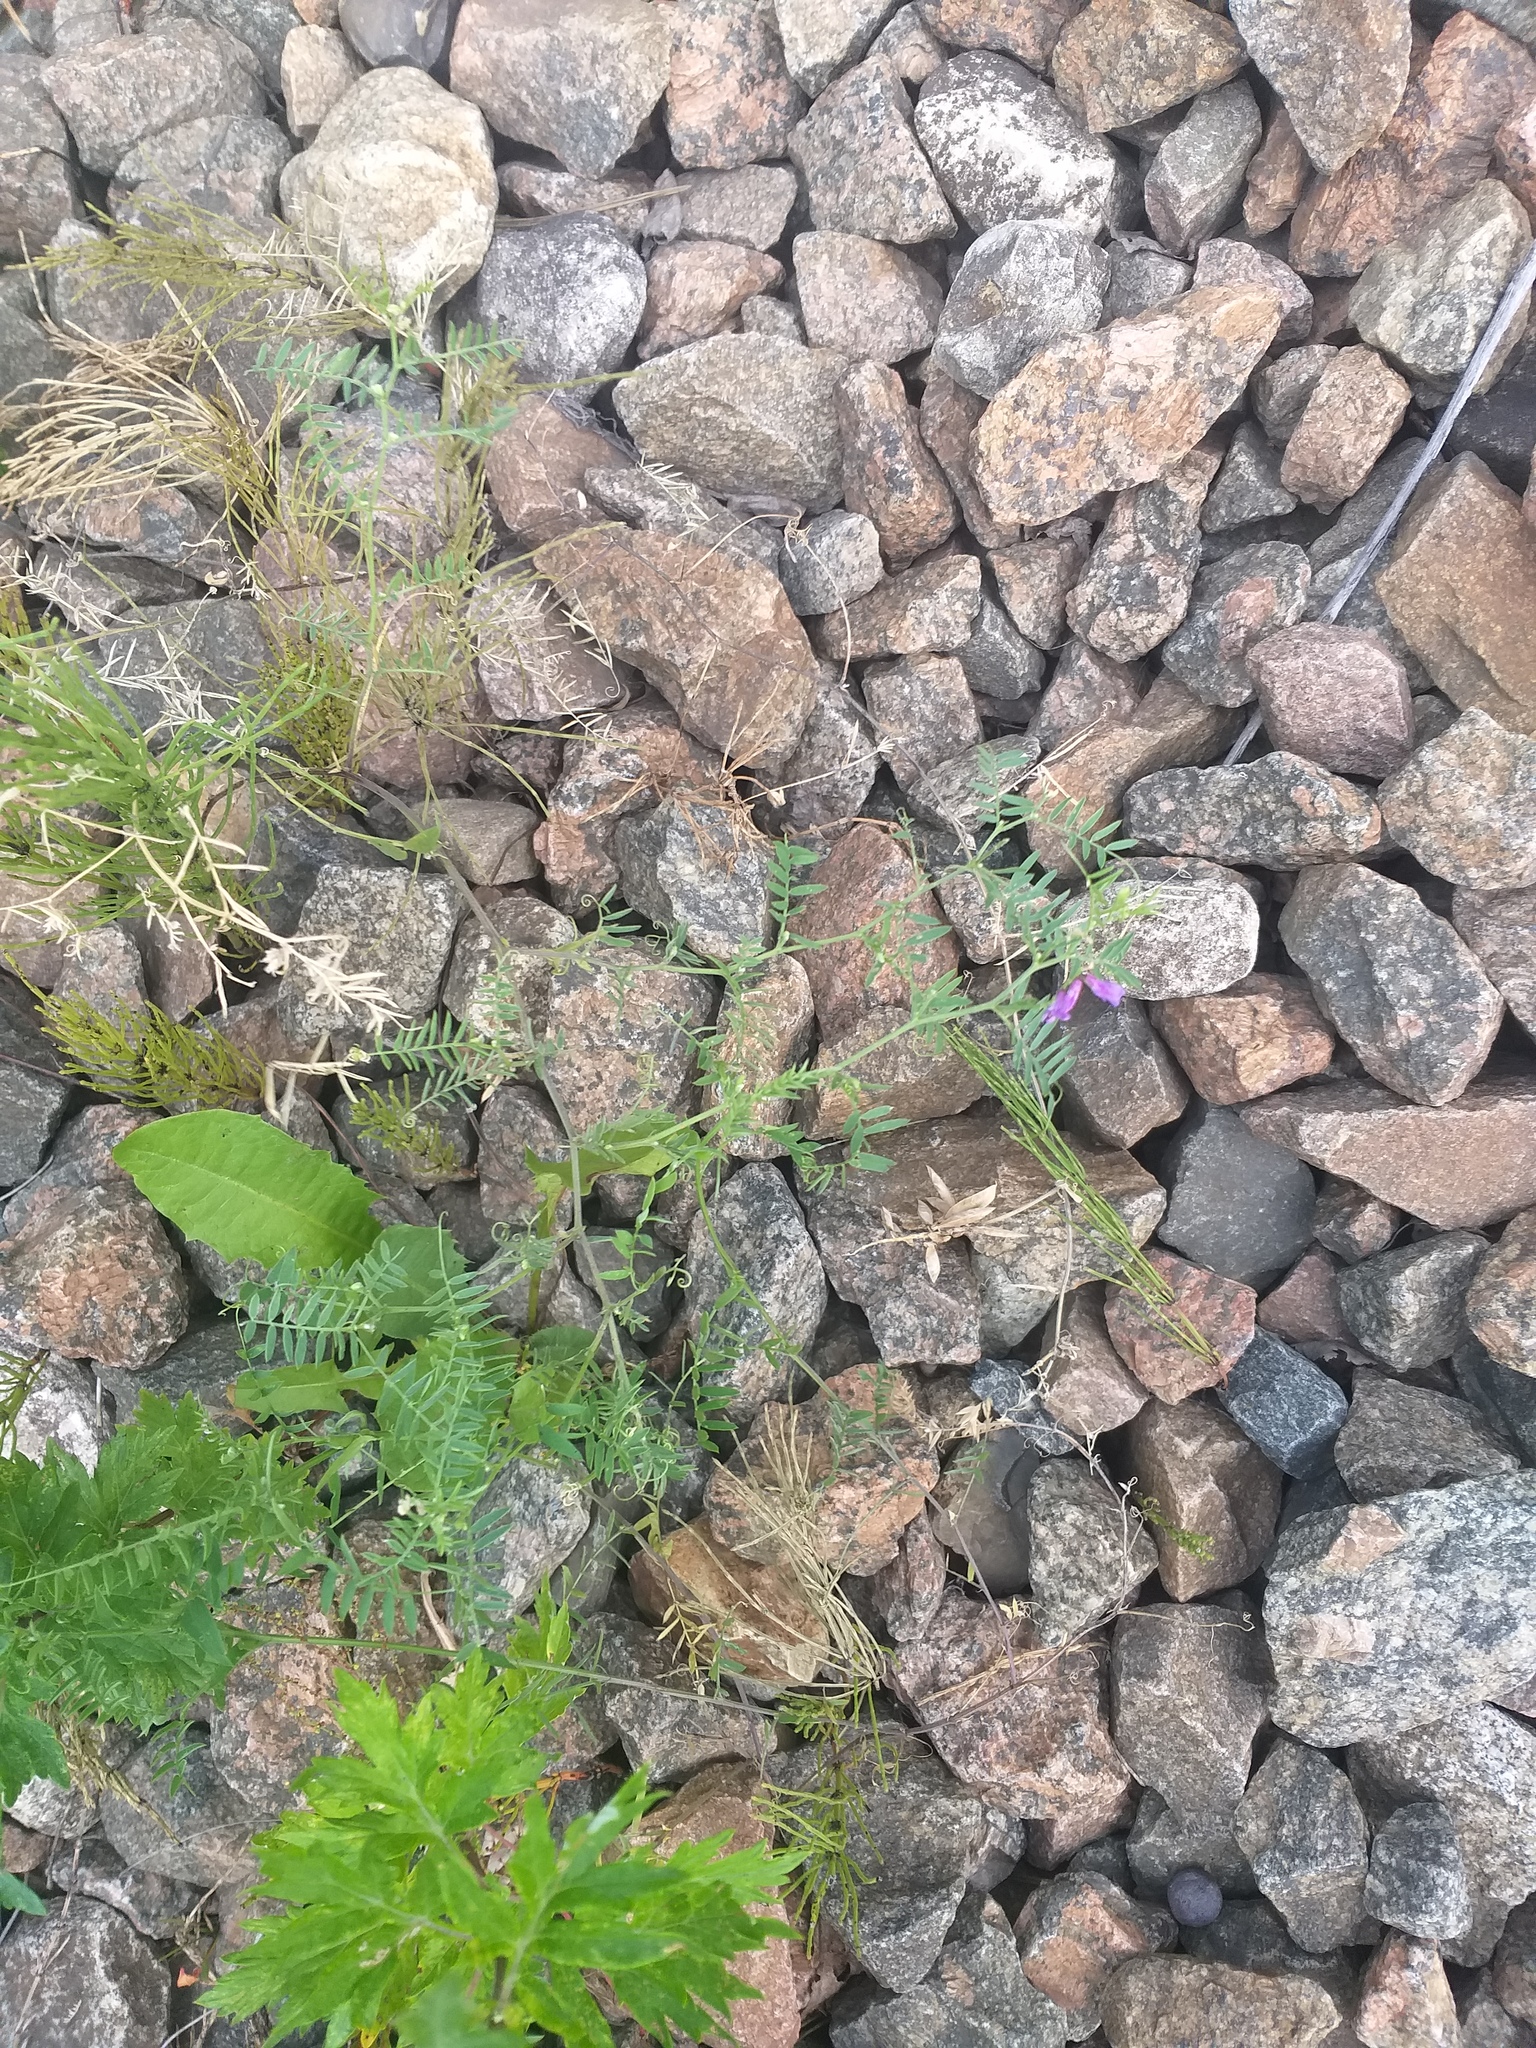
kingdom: Plantae
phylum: Tracheophyta
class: Magnoliopsida
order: Fabales
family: Fabaceae
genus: Vicia
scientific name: Vicia cracca
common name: Bird vetch
